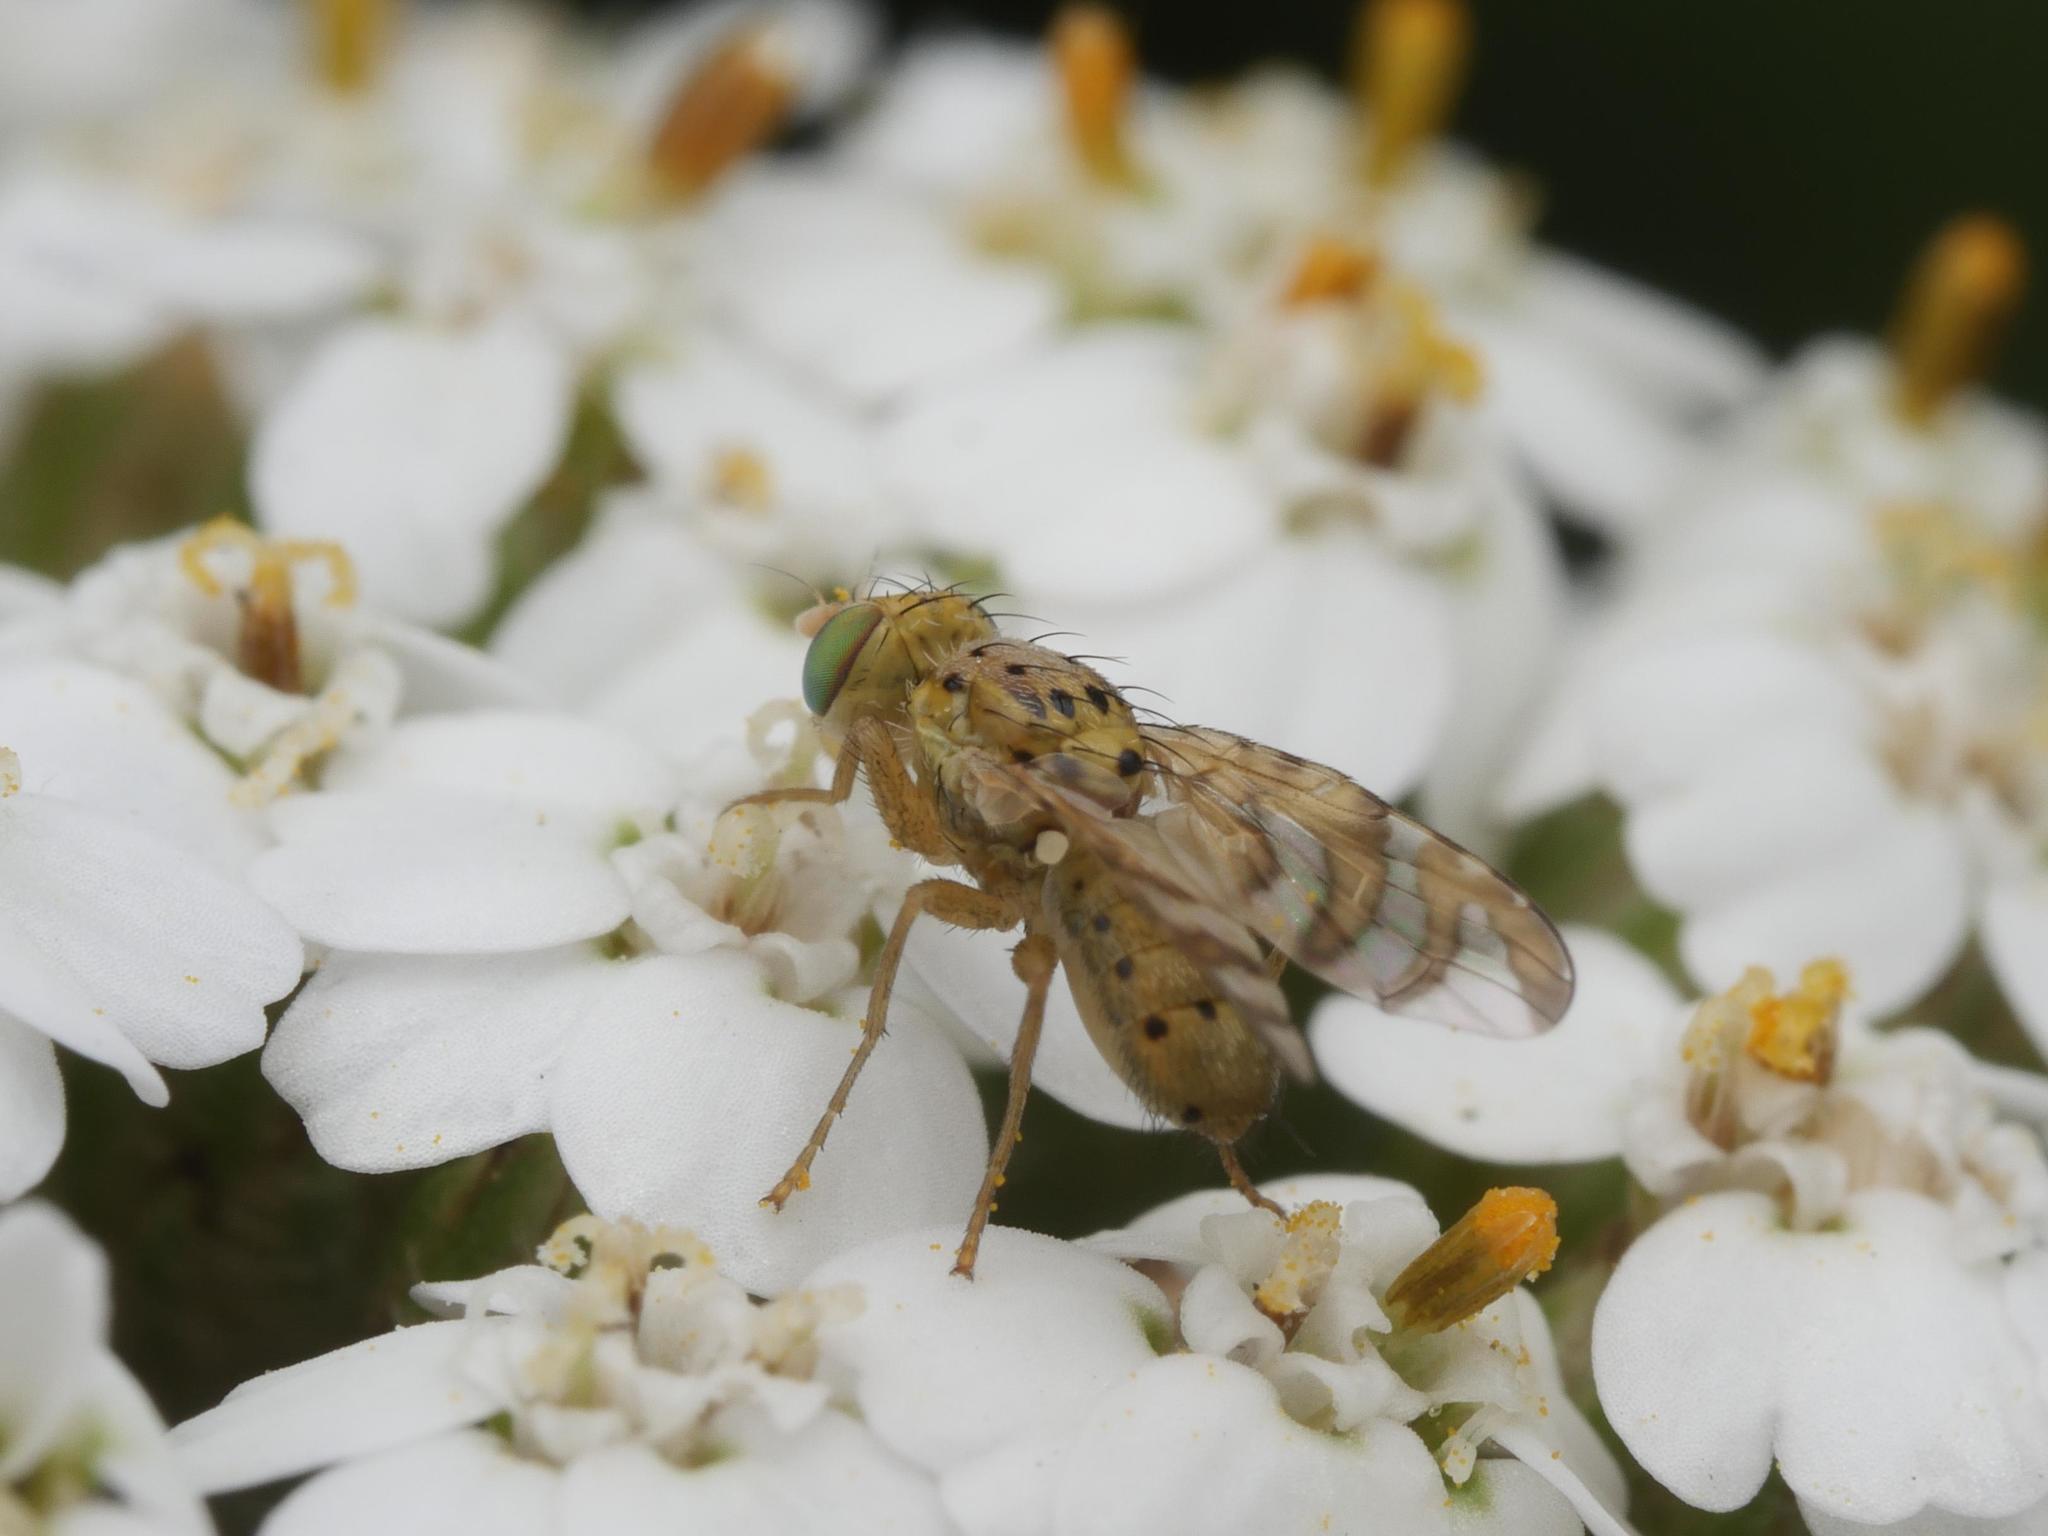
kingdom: Animalia
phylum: Arthropoda
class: Insecta
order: Diptera
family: Tephritidae
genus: Chaetorellia
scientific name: Chaetorellia jaceae
